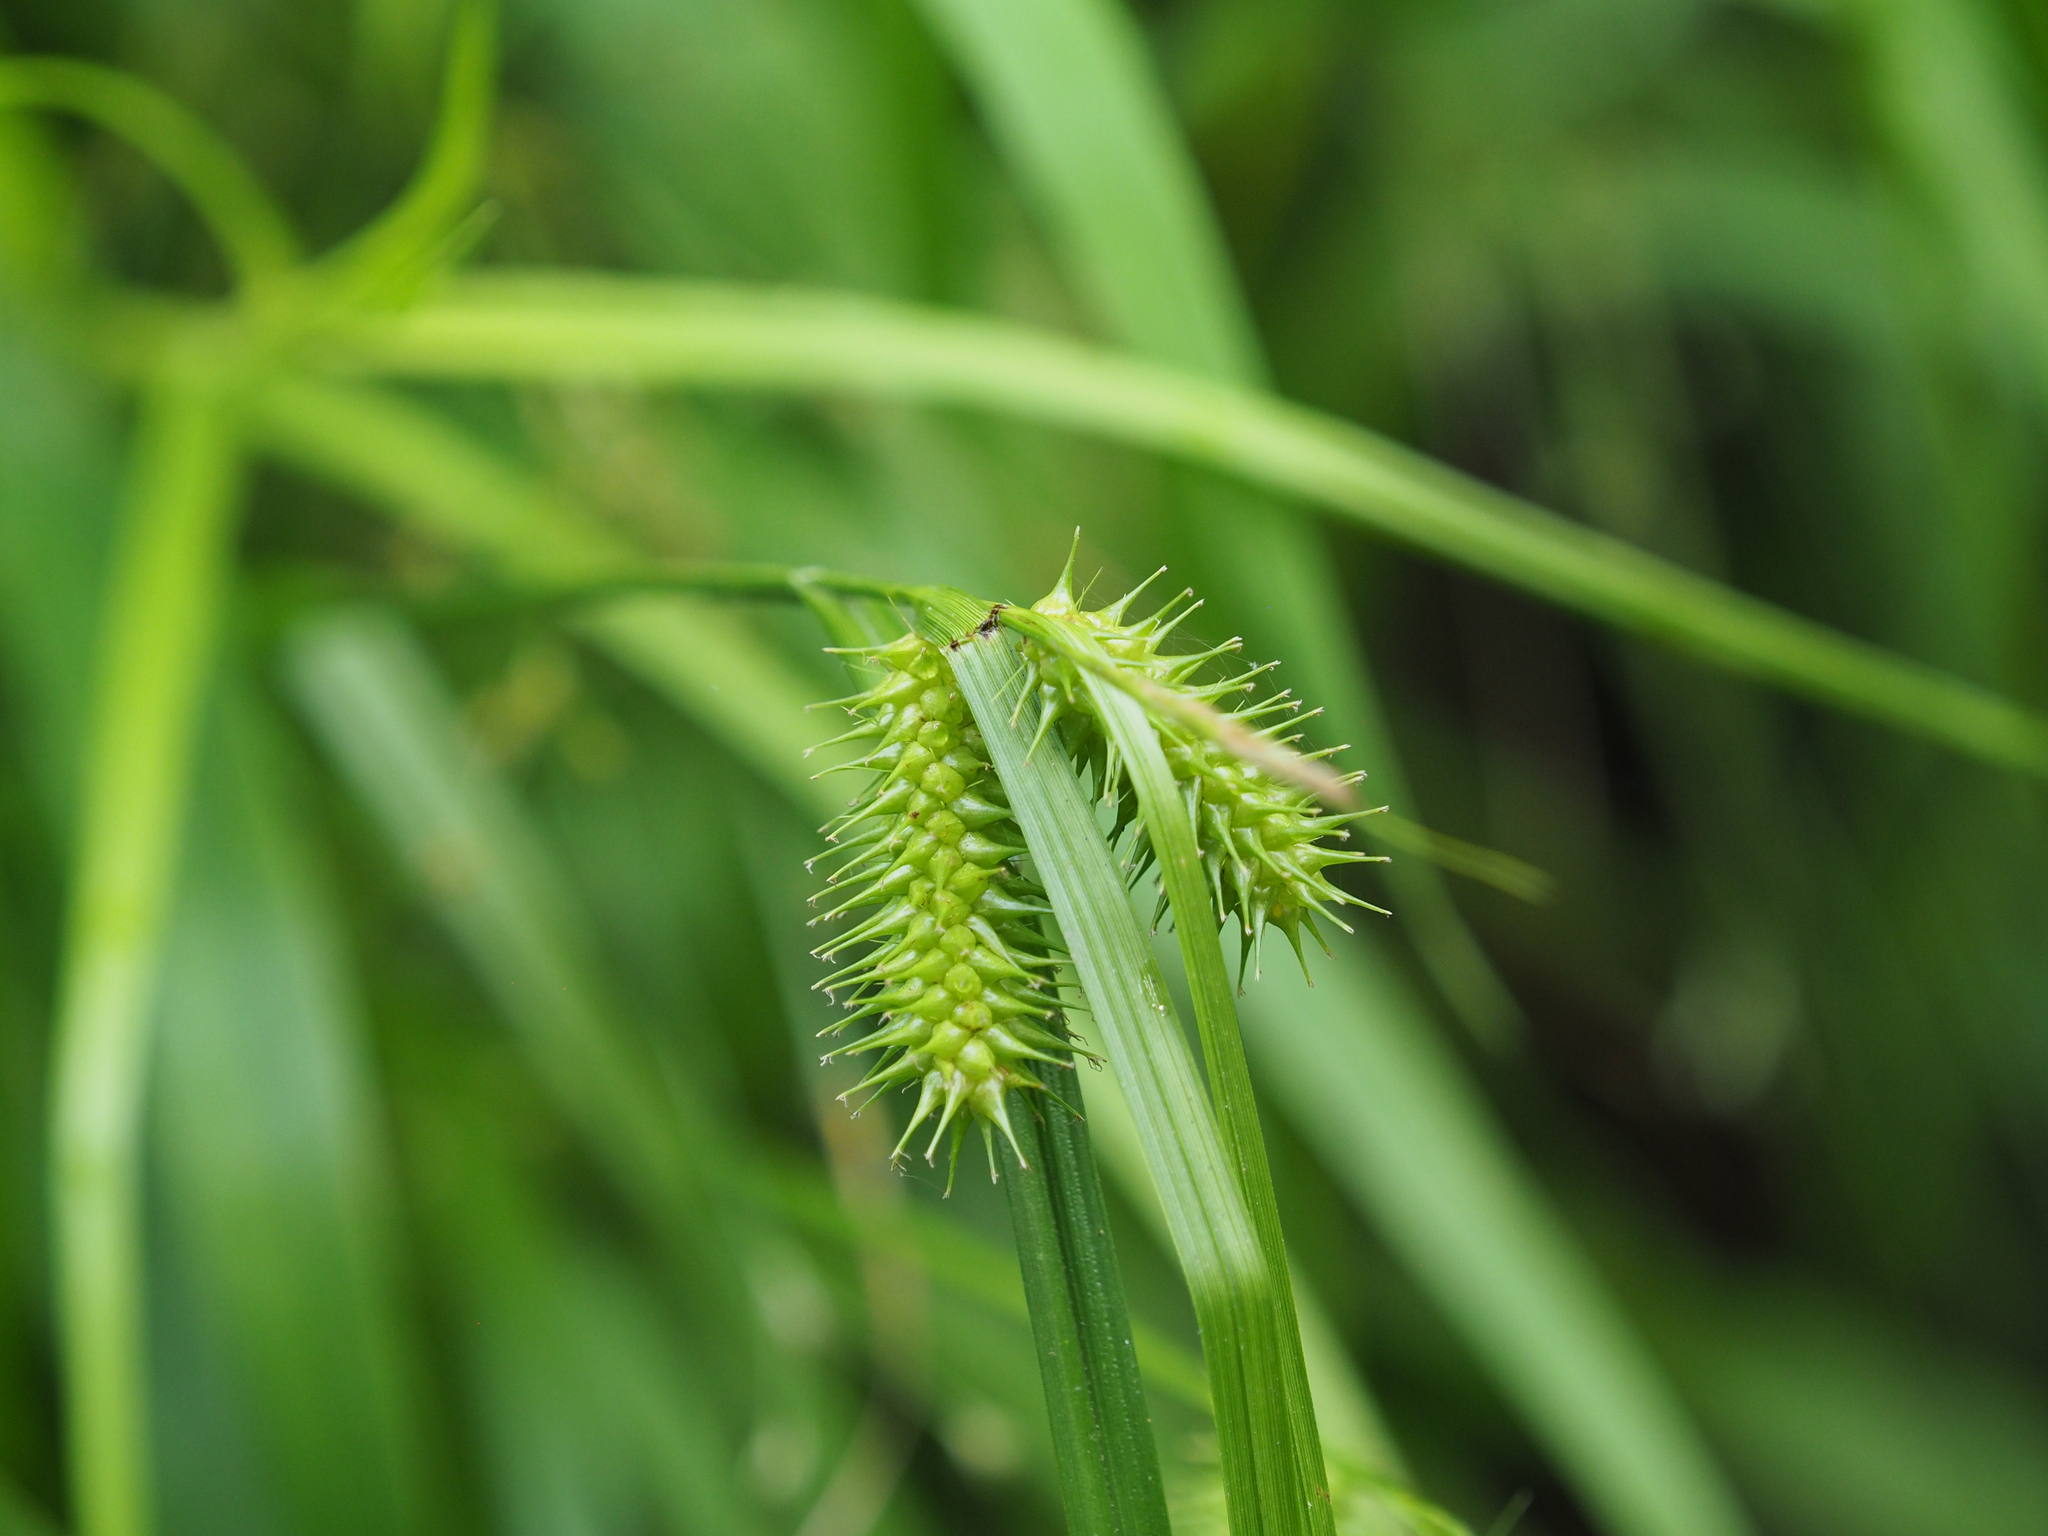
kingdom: Plantae
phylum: Tracheophyta
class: Liliopsida
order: Poales
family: Cyperaceae
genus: Carex
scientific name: Carex lurida
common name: Sallow sedge
